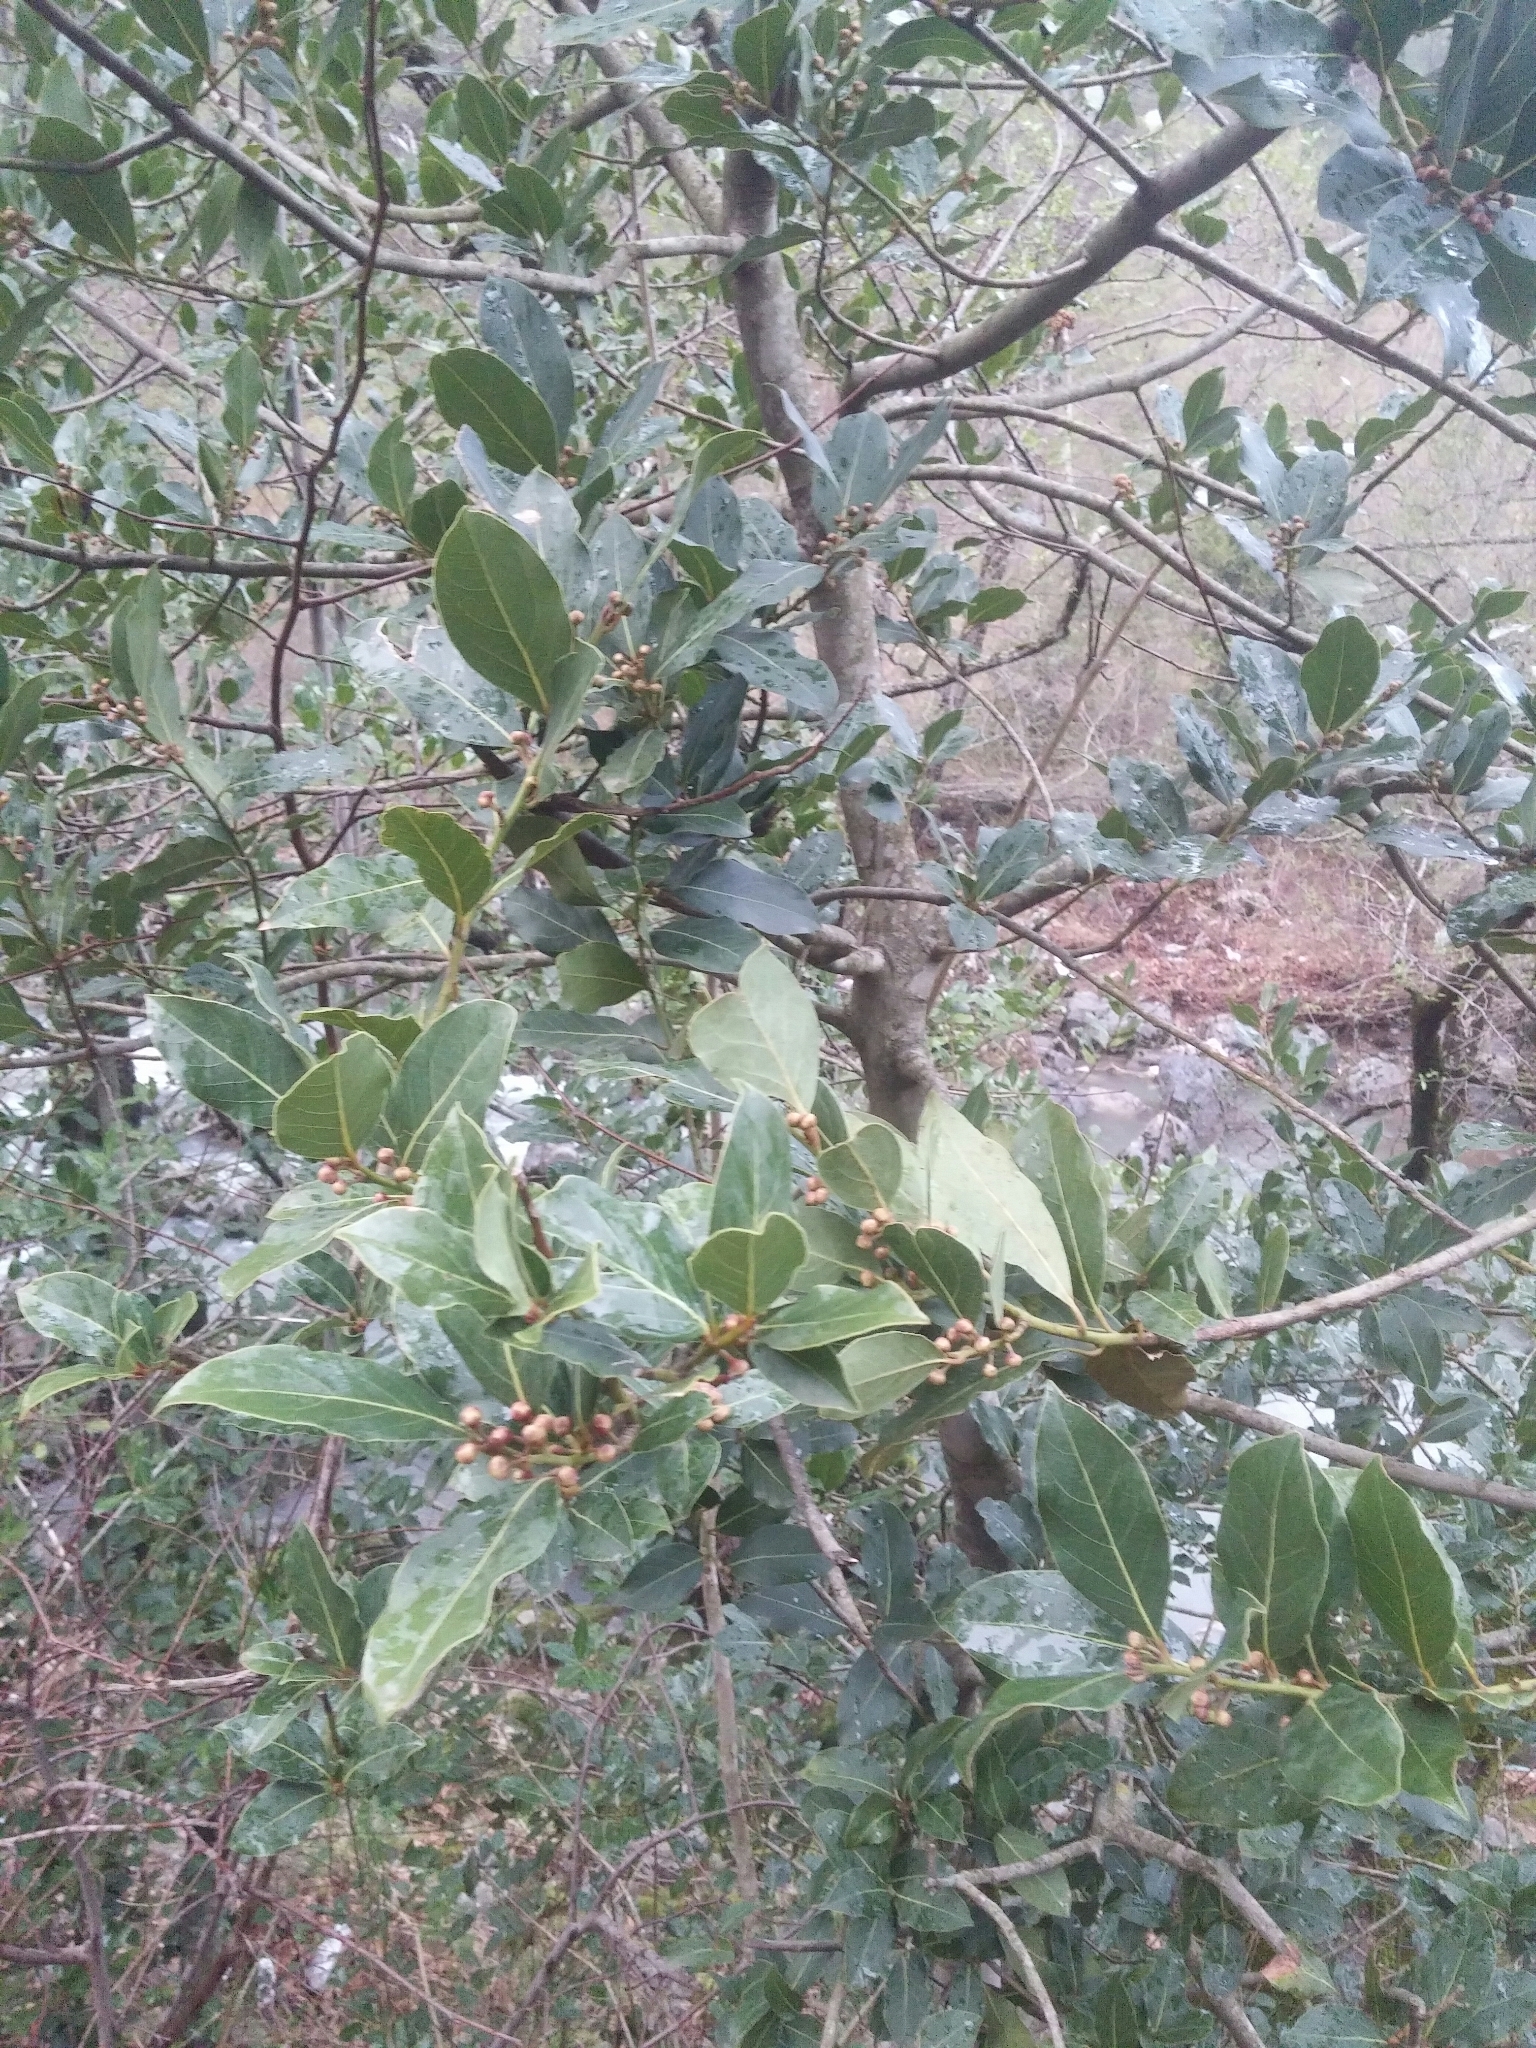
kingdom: Plantae
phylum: Tracheophyta
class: Magnoliopsida
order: Laurales
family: Lauraceae
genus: Laurus
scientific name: Laurus nobilis
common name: Bay
